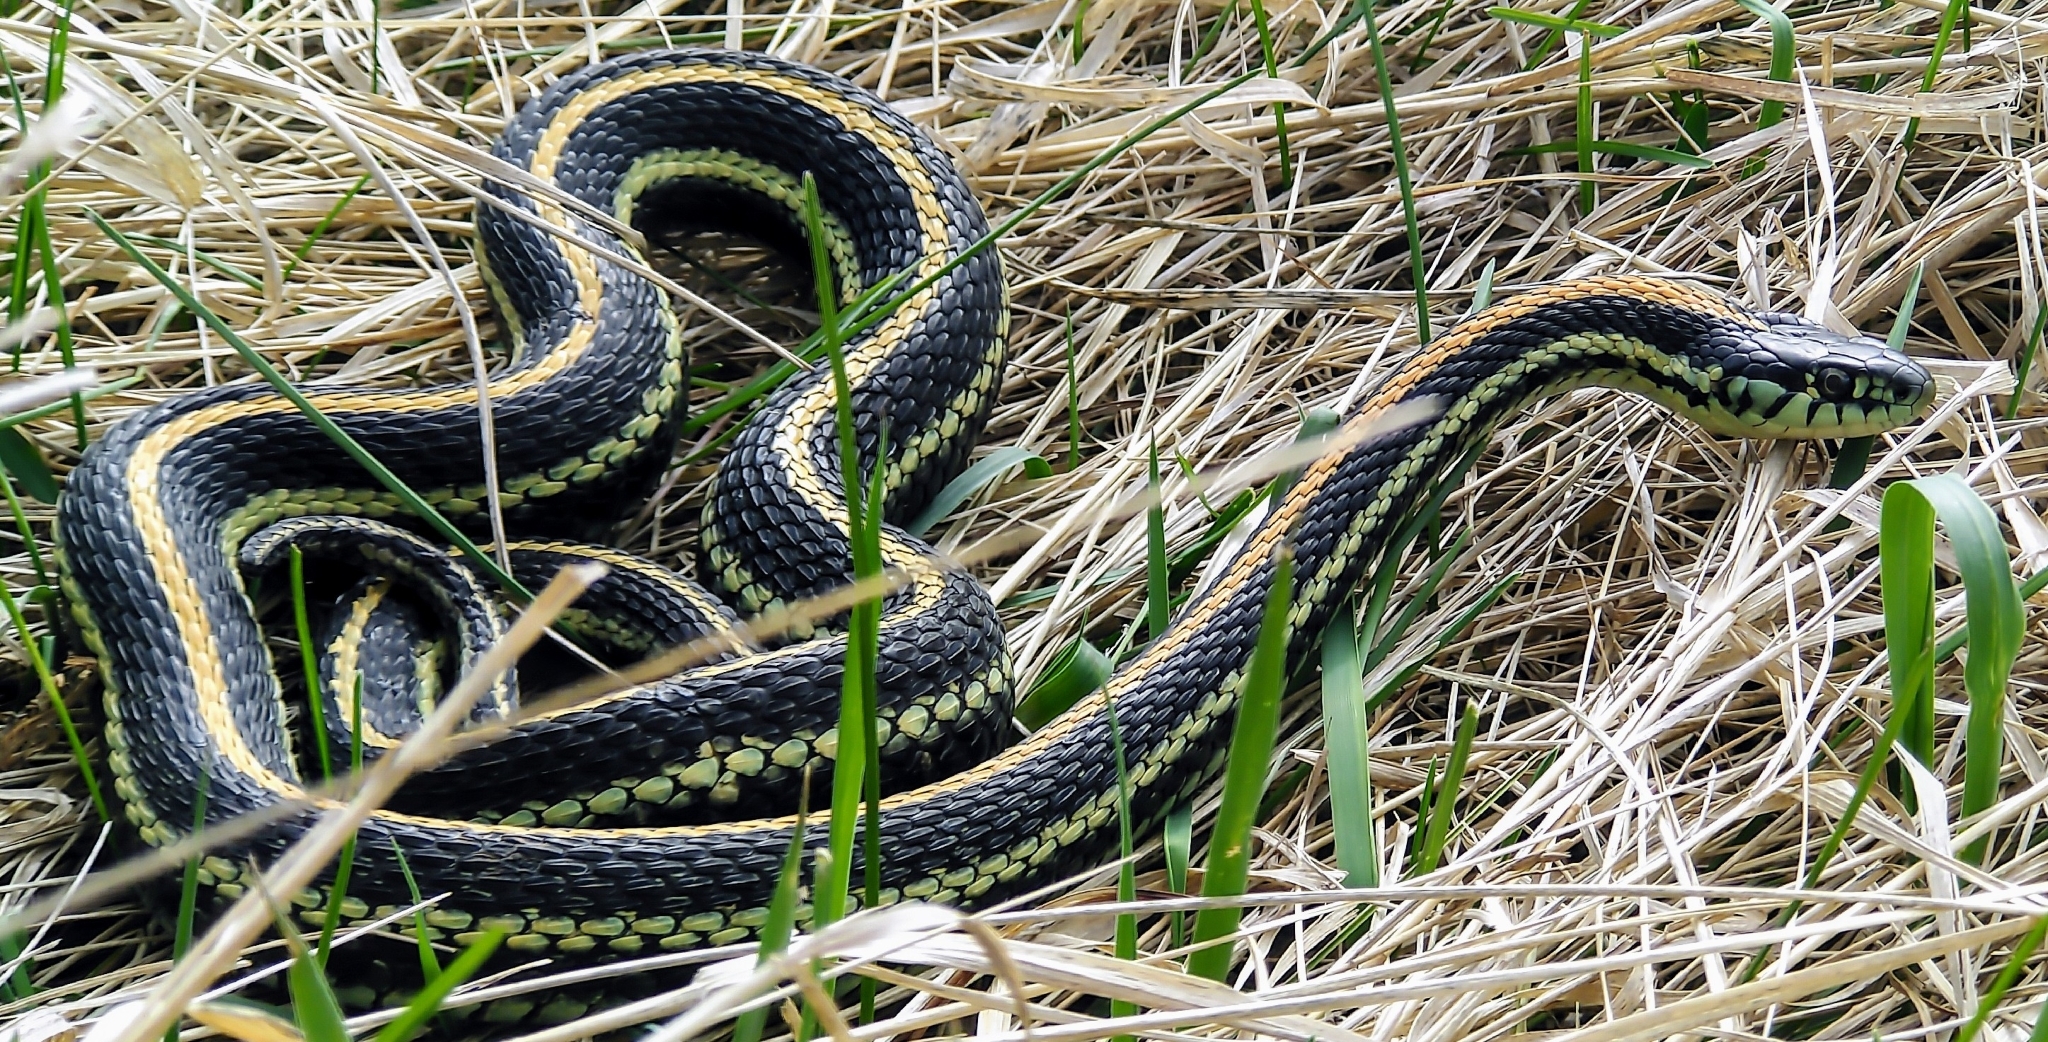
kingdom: Animalia
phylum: Chordata
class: Squamata
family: Colubridae
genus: Thamnophis
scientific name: Thamnophis radix
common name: Plains garter snake
